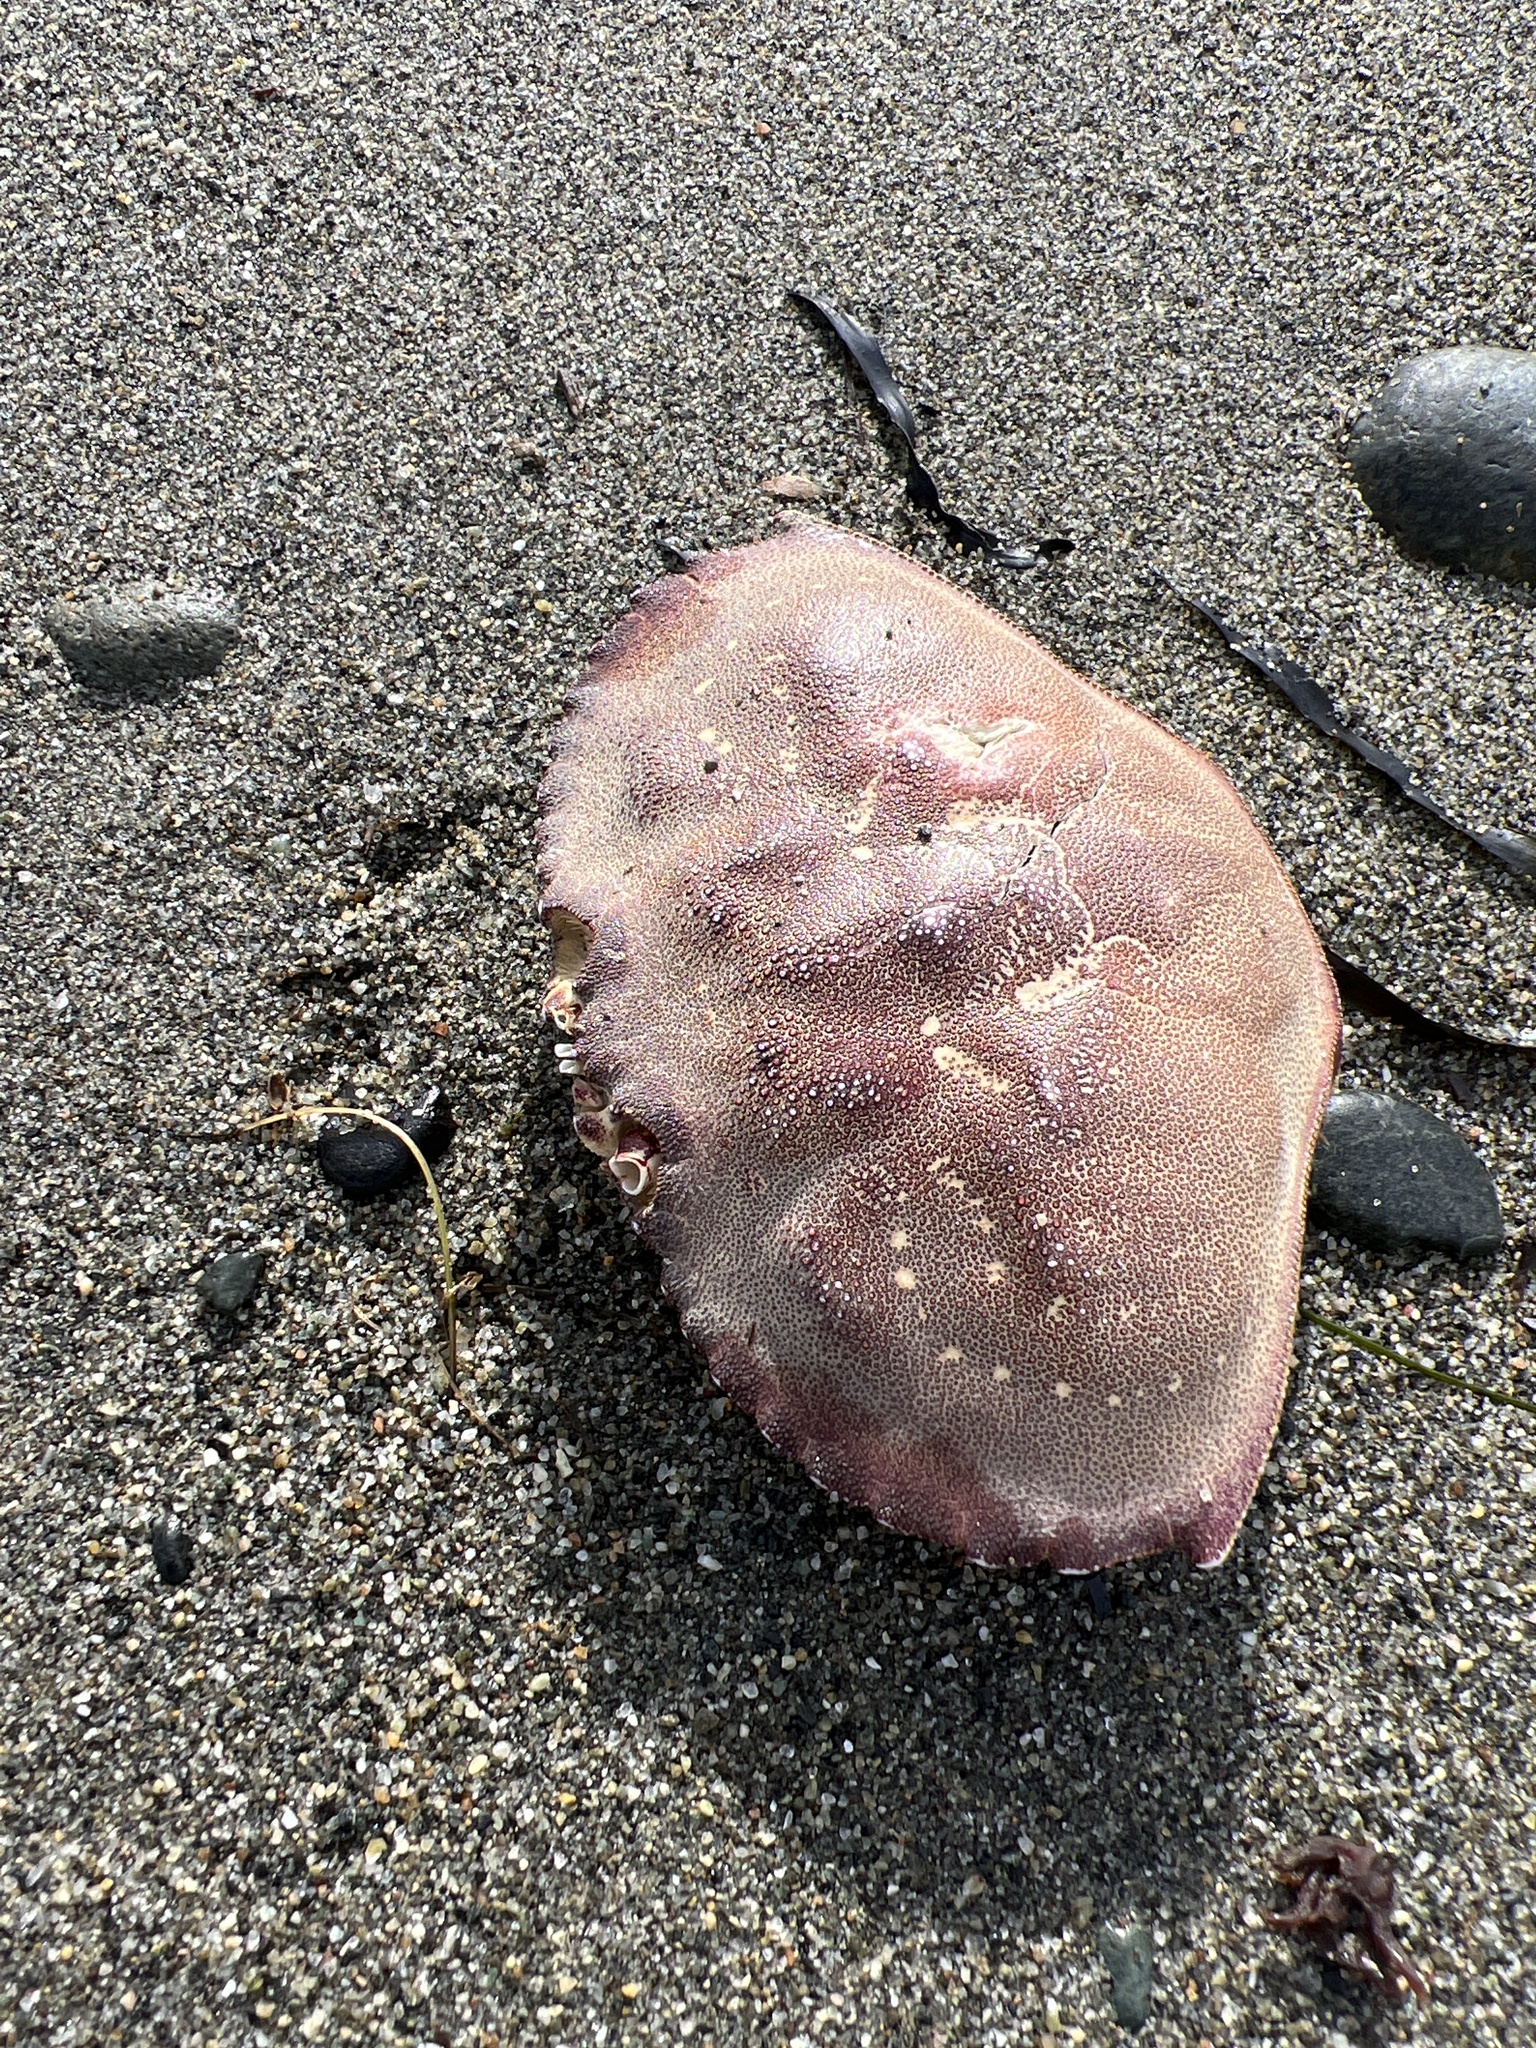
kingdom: Animalia
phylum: Arthropoda
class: Malacostraca
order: Decapoda
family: Cancridae
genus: Metacarcinus
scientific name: Metacarcinus magister
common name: Californian crab
